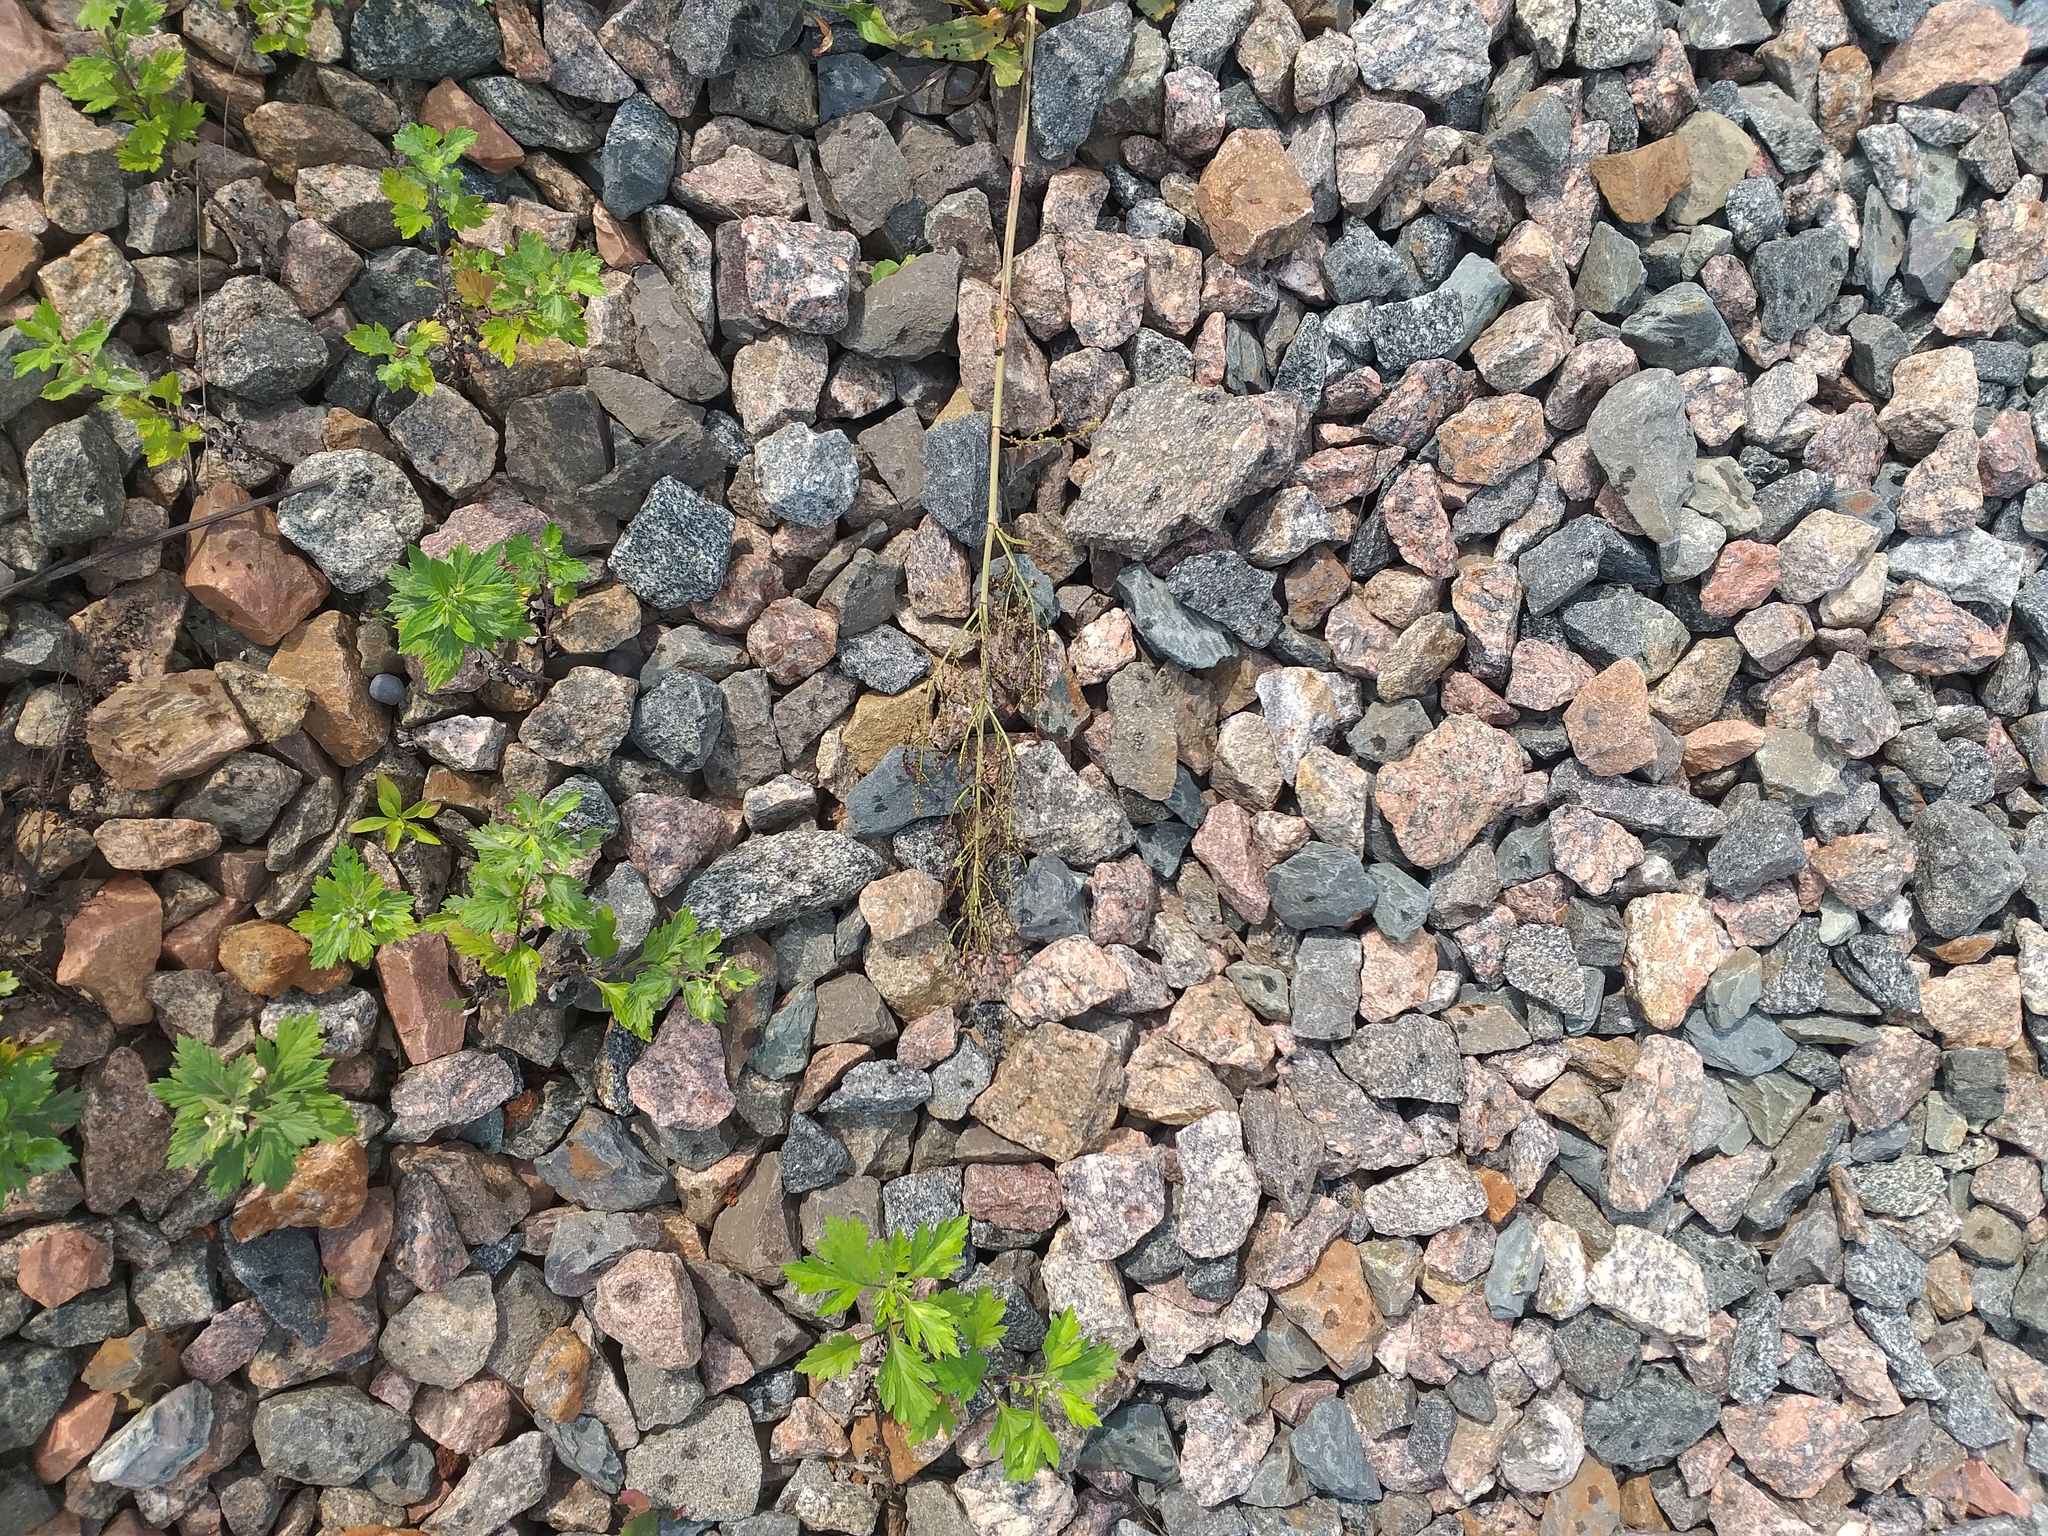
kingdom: Plantae
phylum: Tracheophyta
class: Magnoliopsida
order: Caryophyllales
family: Polygonaceae
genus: Rumex
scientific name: Rumex thyrsiflorus
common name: Garden sorrel
